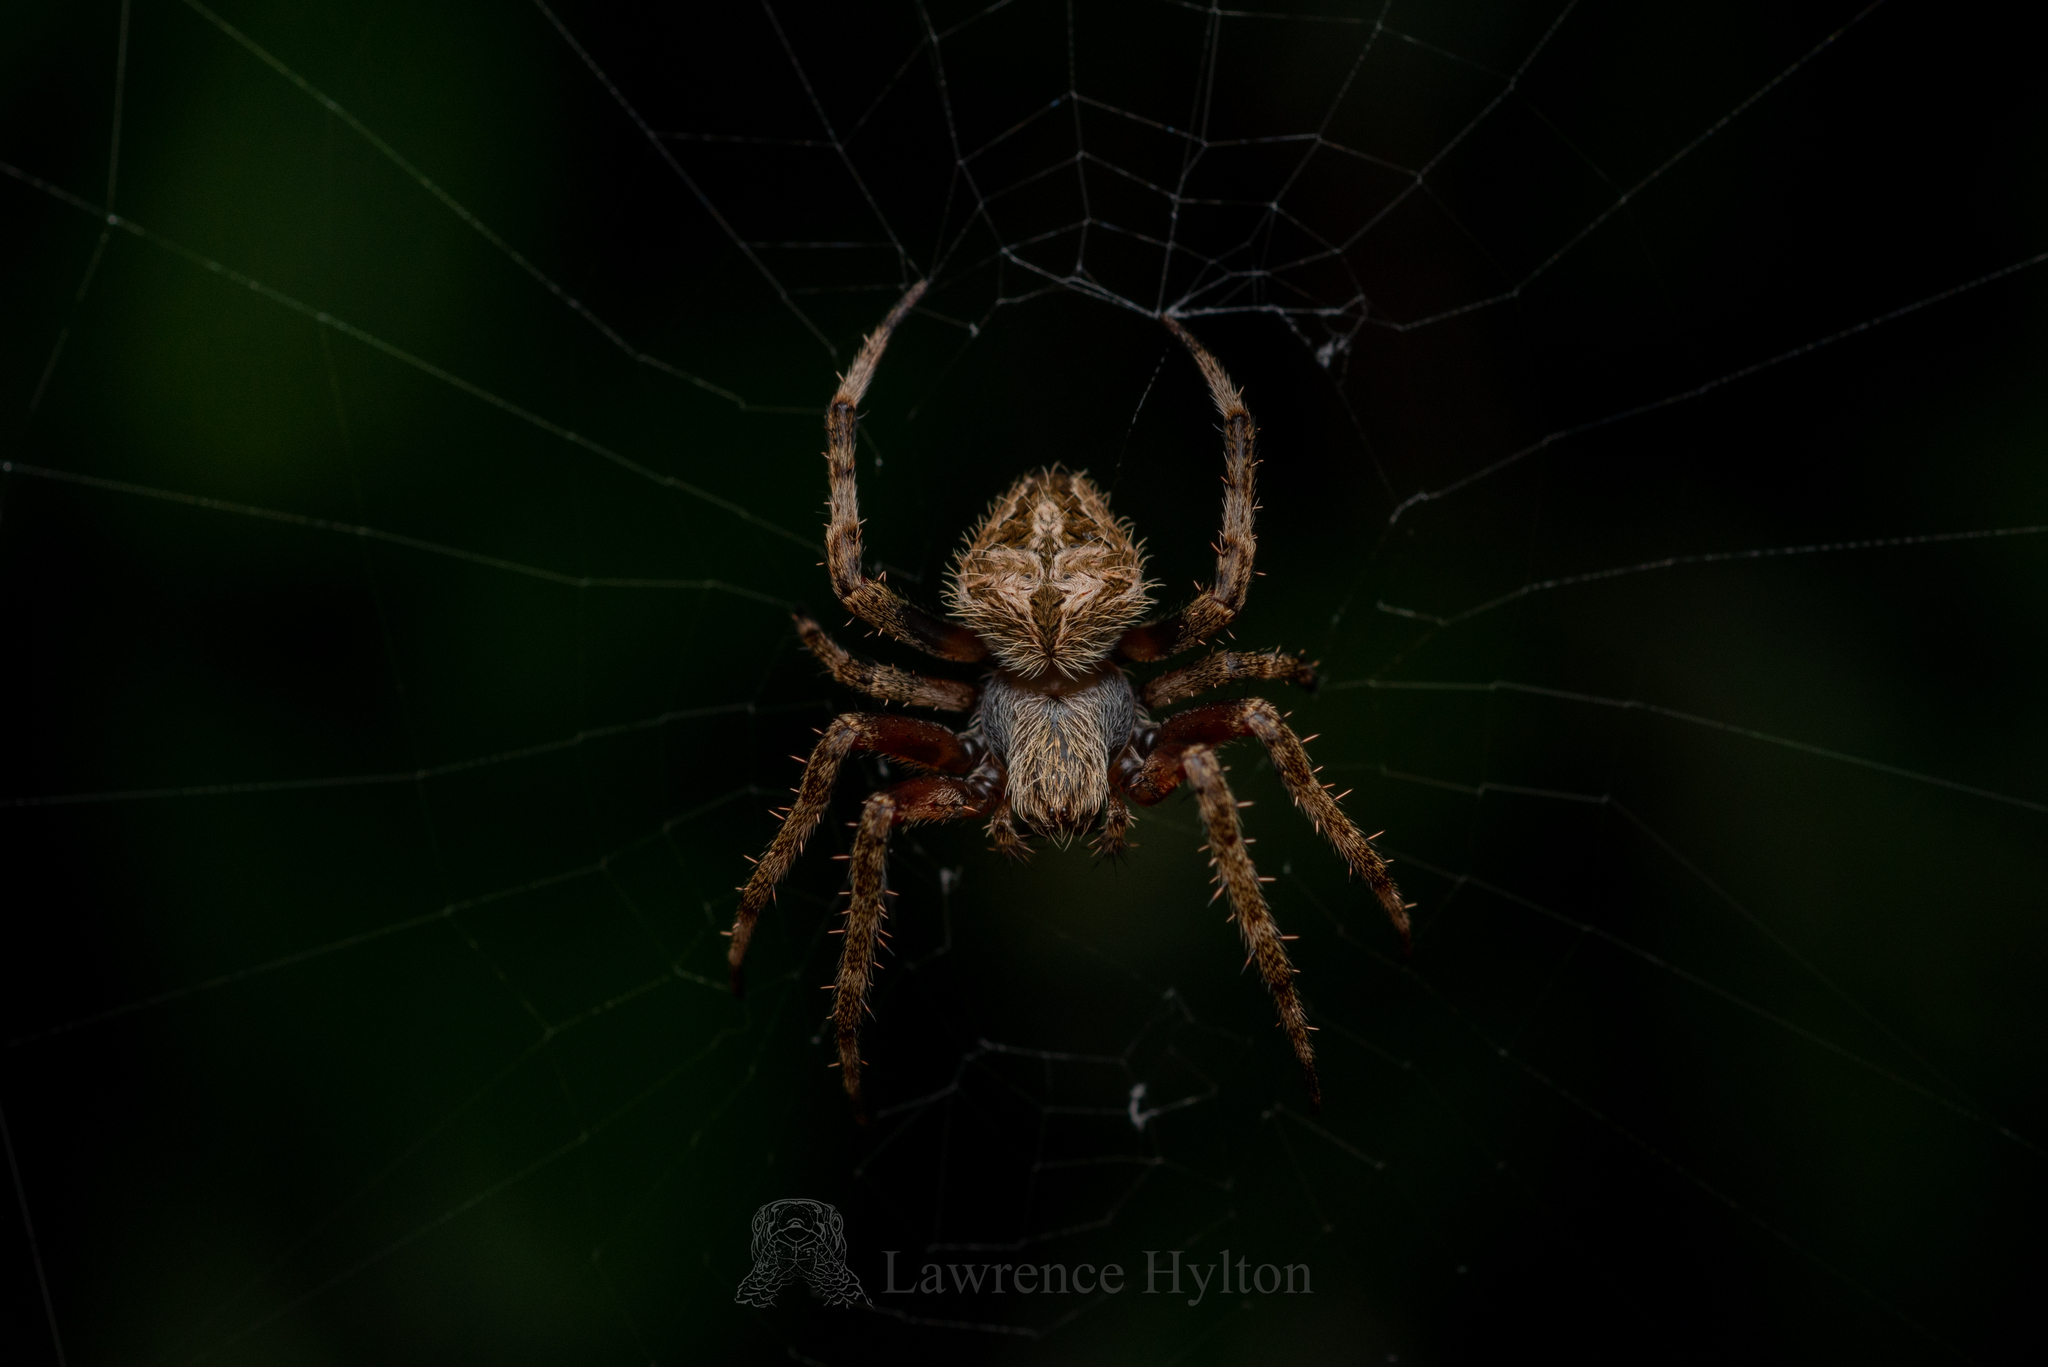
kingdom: Animalia
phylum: Arthropoda
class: Arachnida
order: Araneae
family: Araneidae
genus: Neoscona
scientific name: Neoscona vigilans
